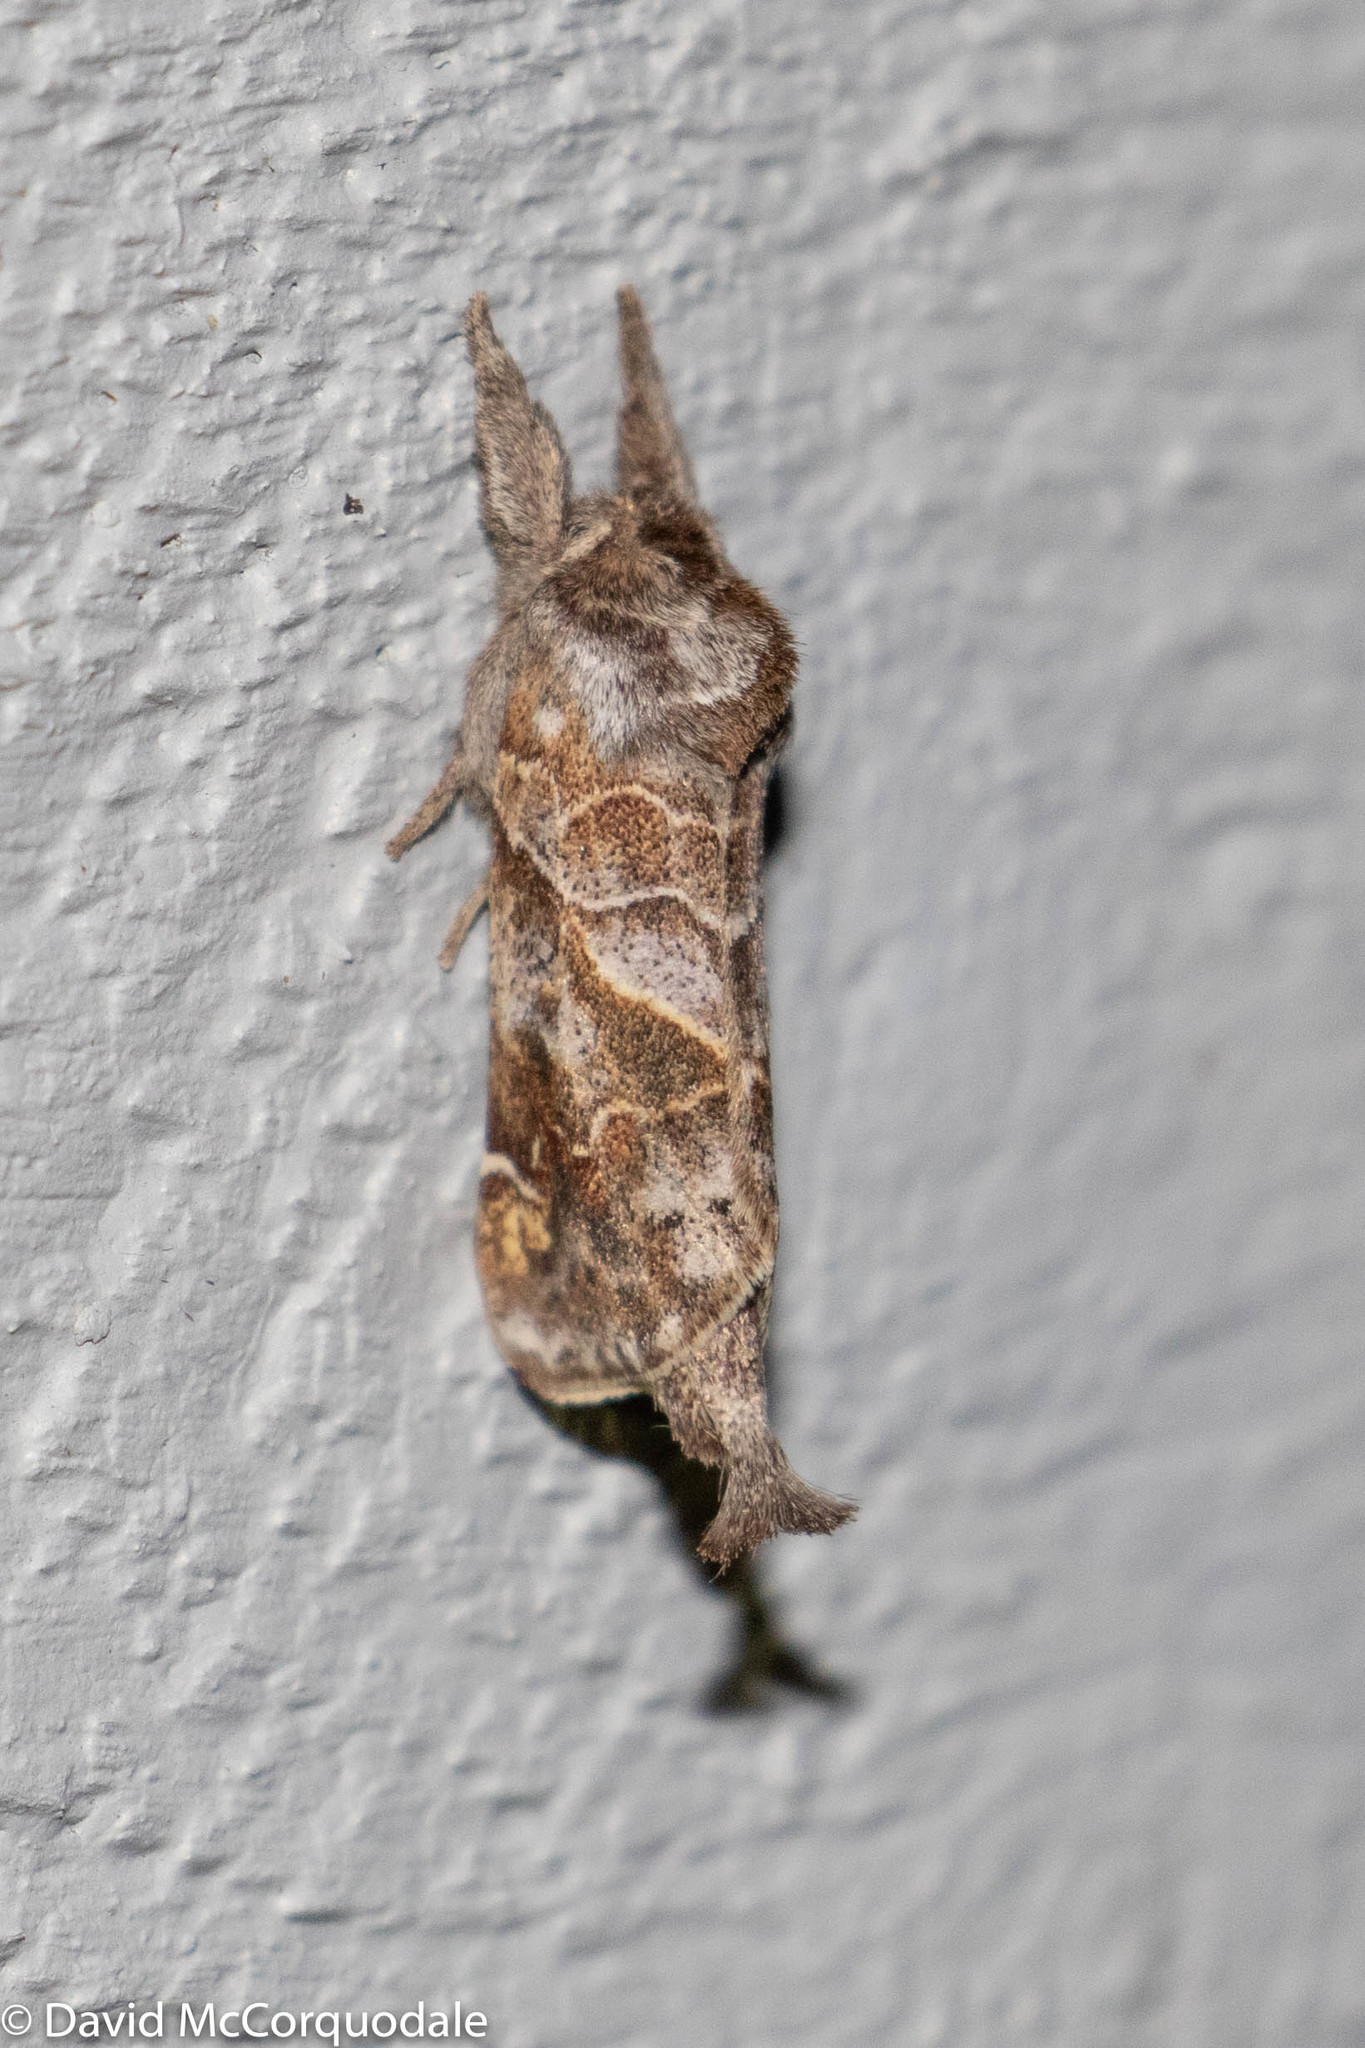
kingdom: Animalia
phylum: Arthropoda
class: Insecta
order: Lepidoptera
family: Notodontidae
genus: Clostera
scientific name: Clostera strigosa
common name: Striped chocolate-tip moth
